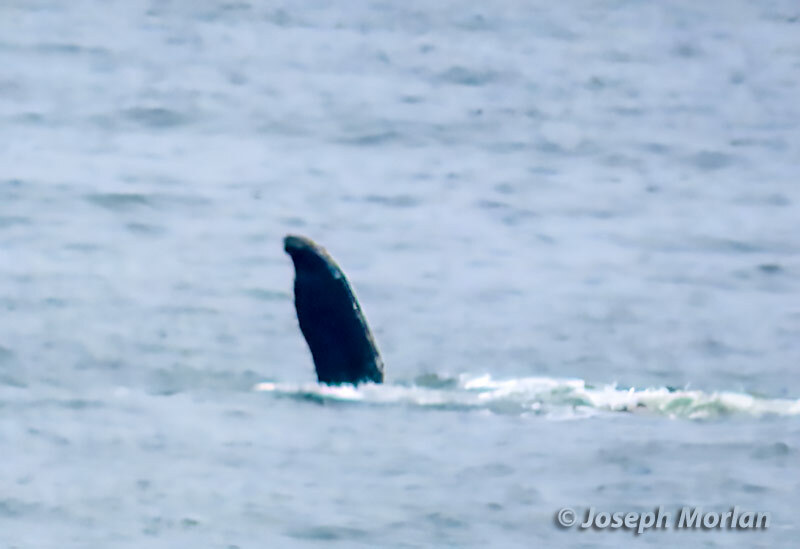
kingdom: Animalia
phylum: Chordata
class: Mammalia
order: Cetacea
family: Balaenopteridae
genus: Megaptera
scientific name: Megaptera novaeangliae
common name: Humpback whale
